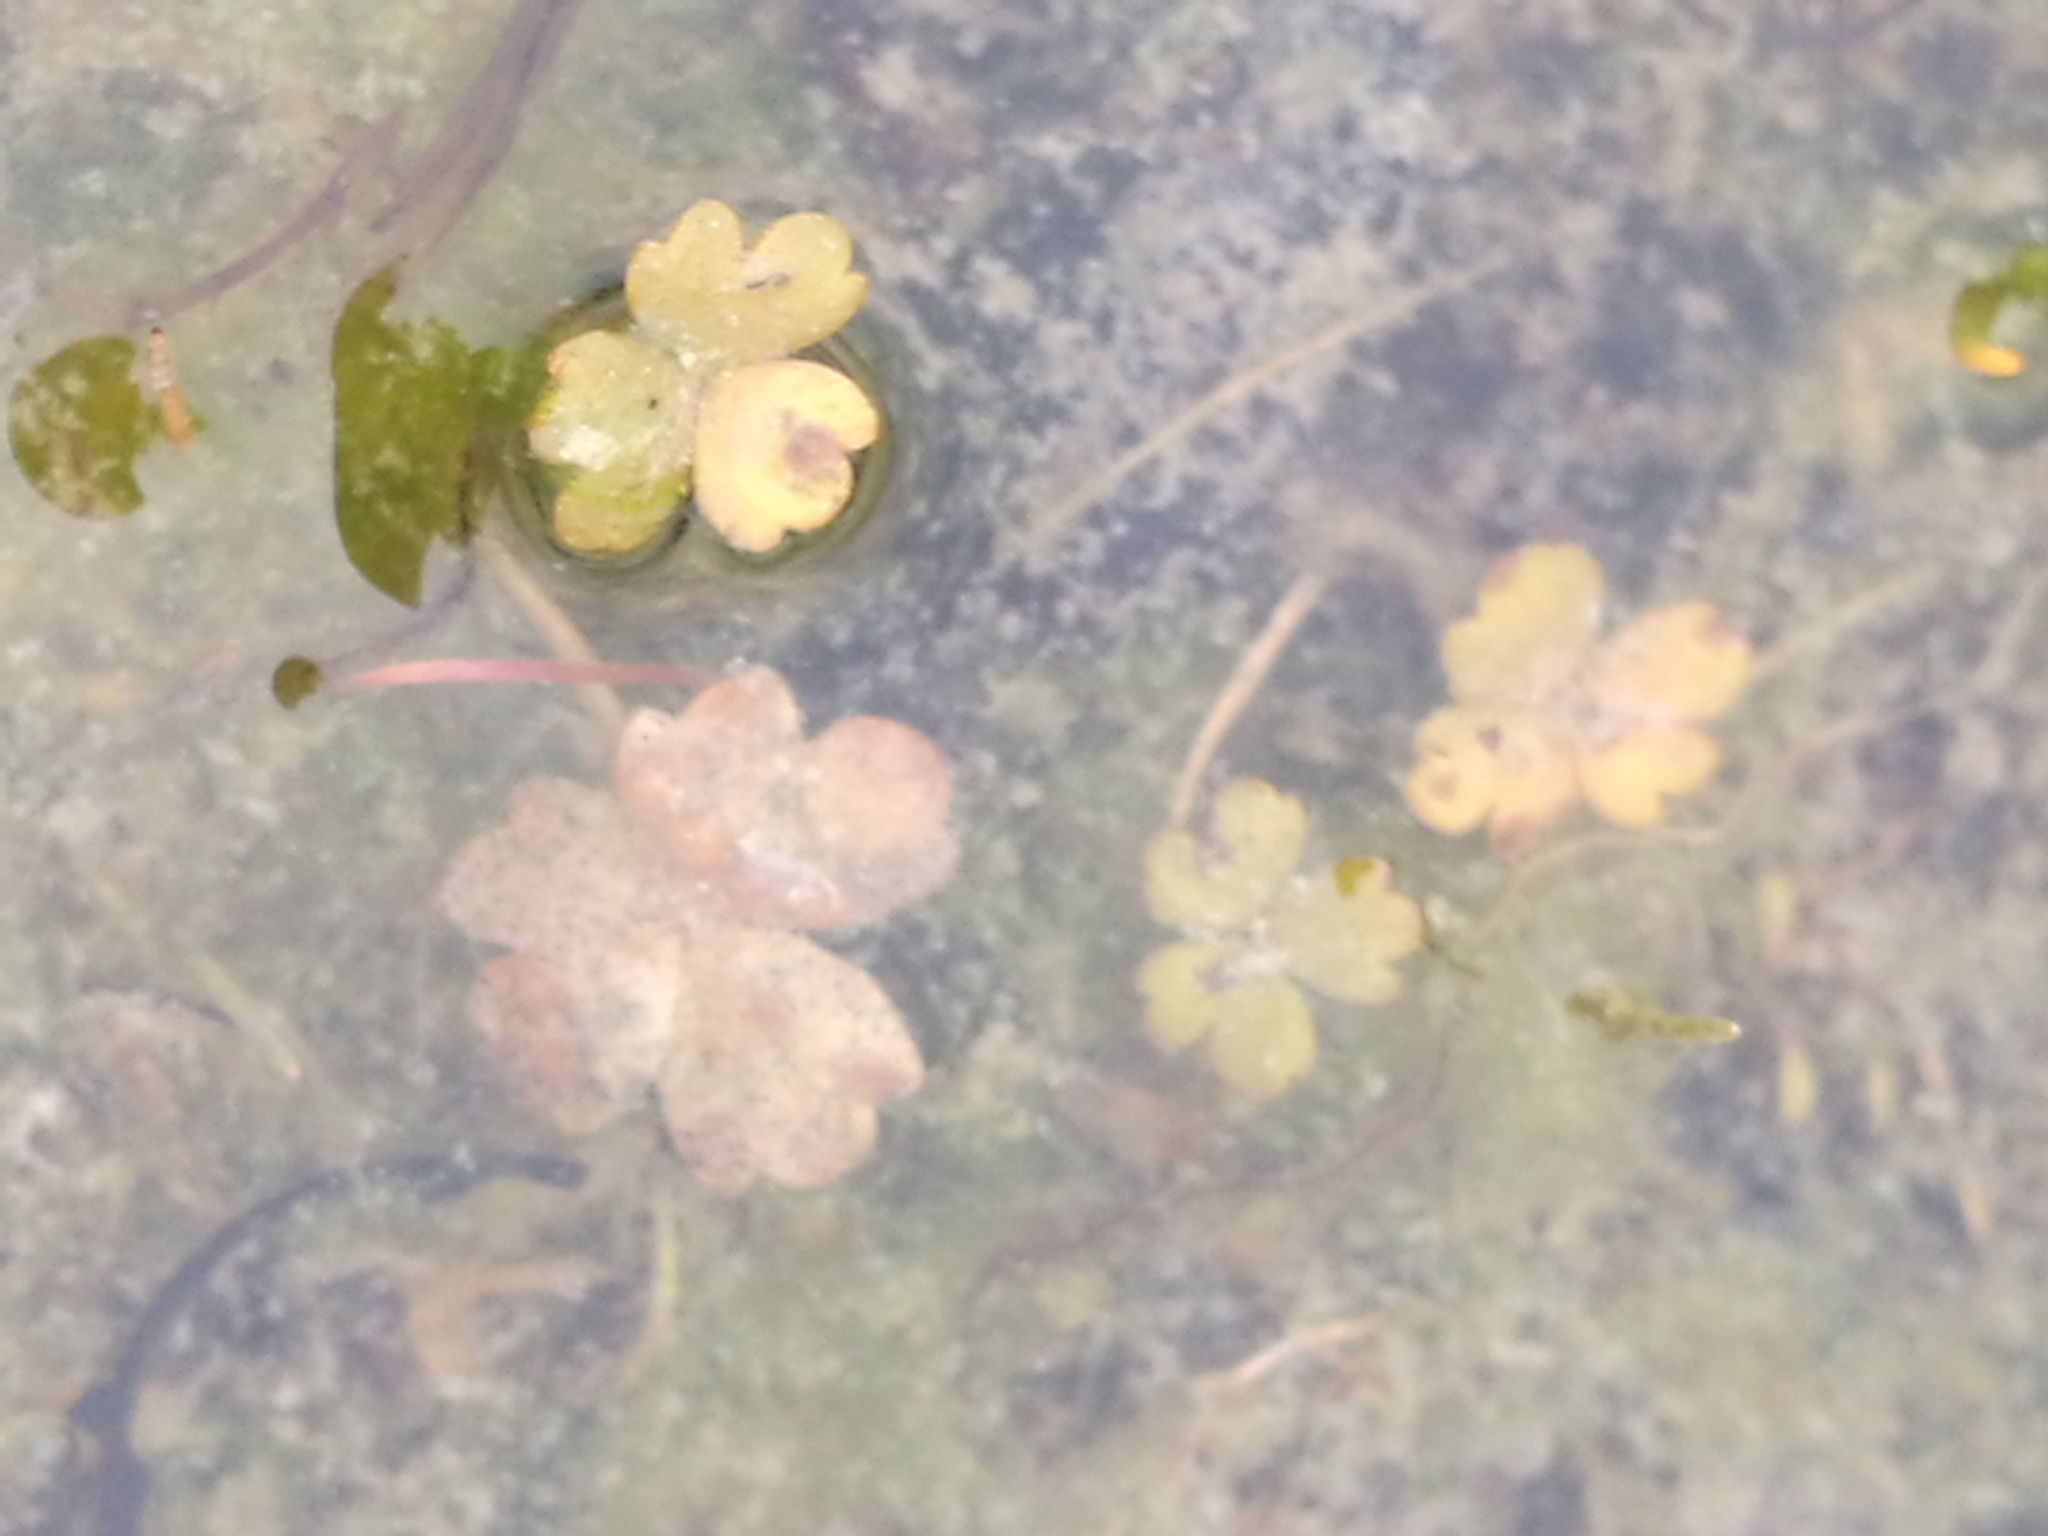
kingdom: Plantae
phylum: Tracheophyta
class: Magnoliopsida
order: Apiales
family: Araliaceae
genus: Hydrocotyle
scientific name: Hydrocotyle sulcata
